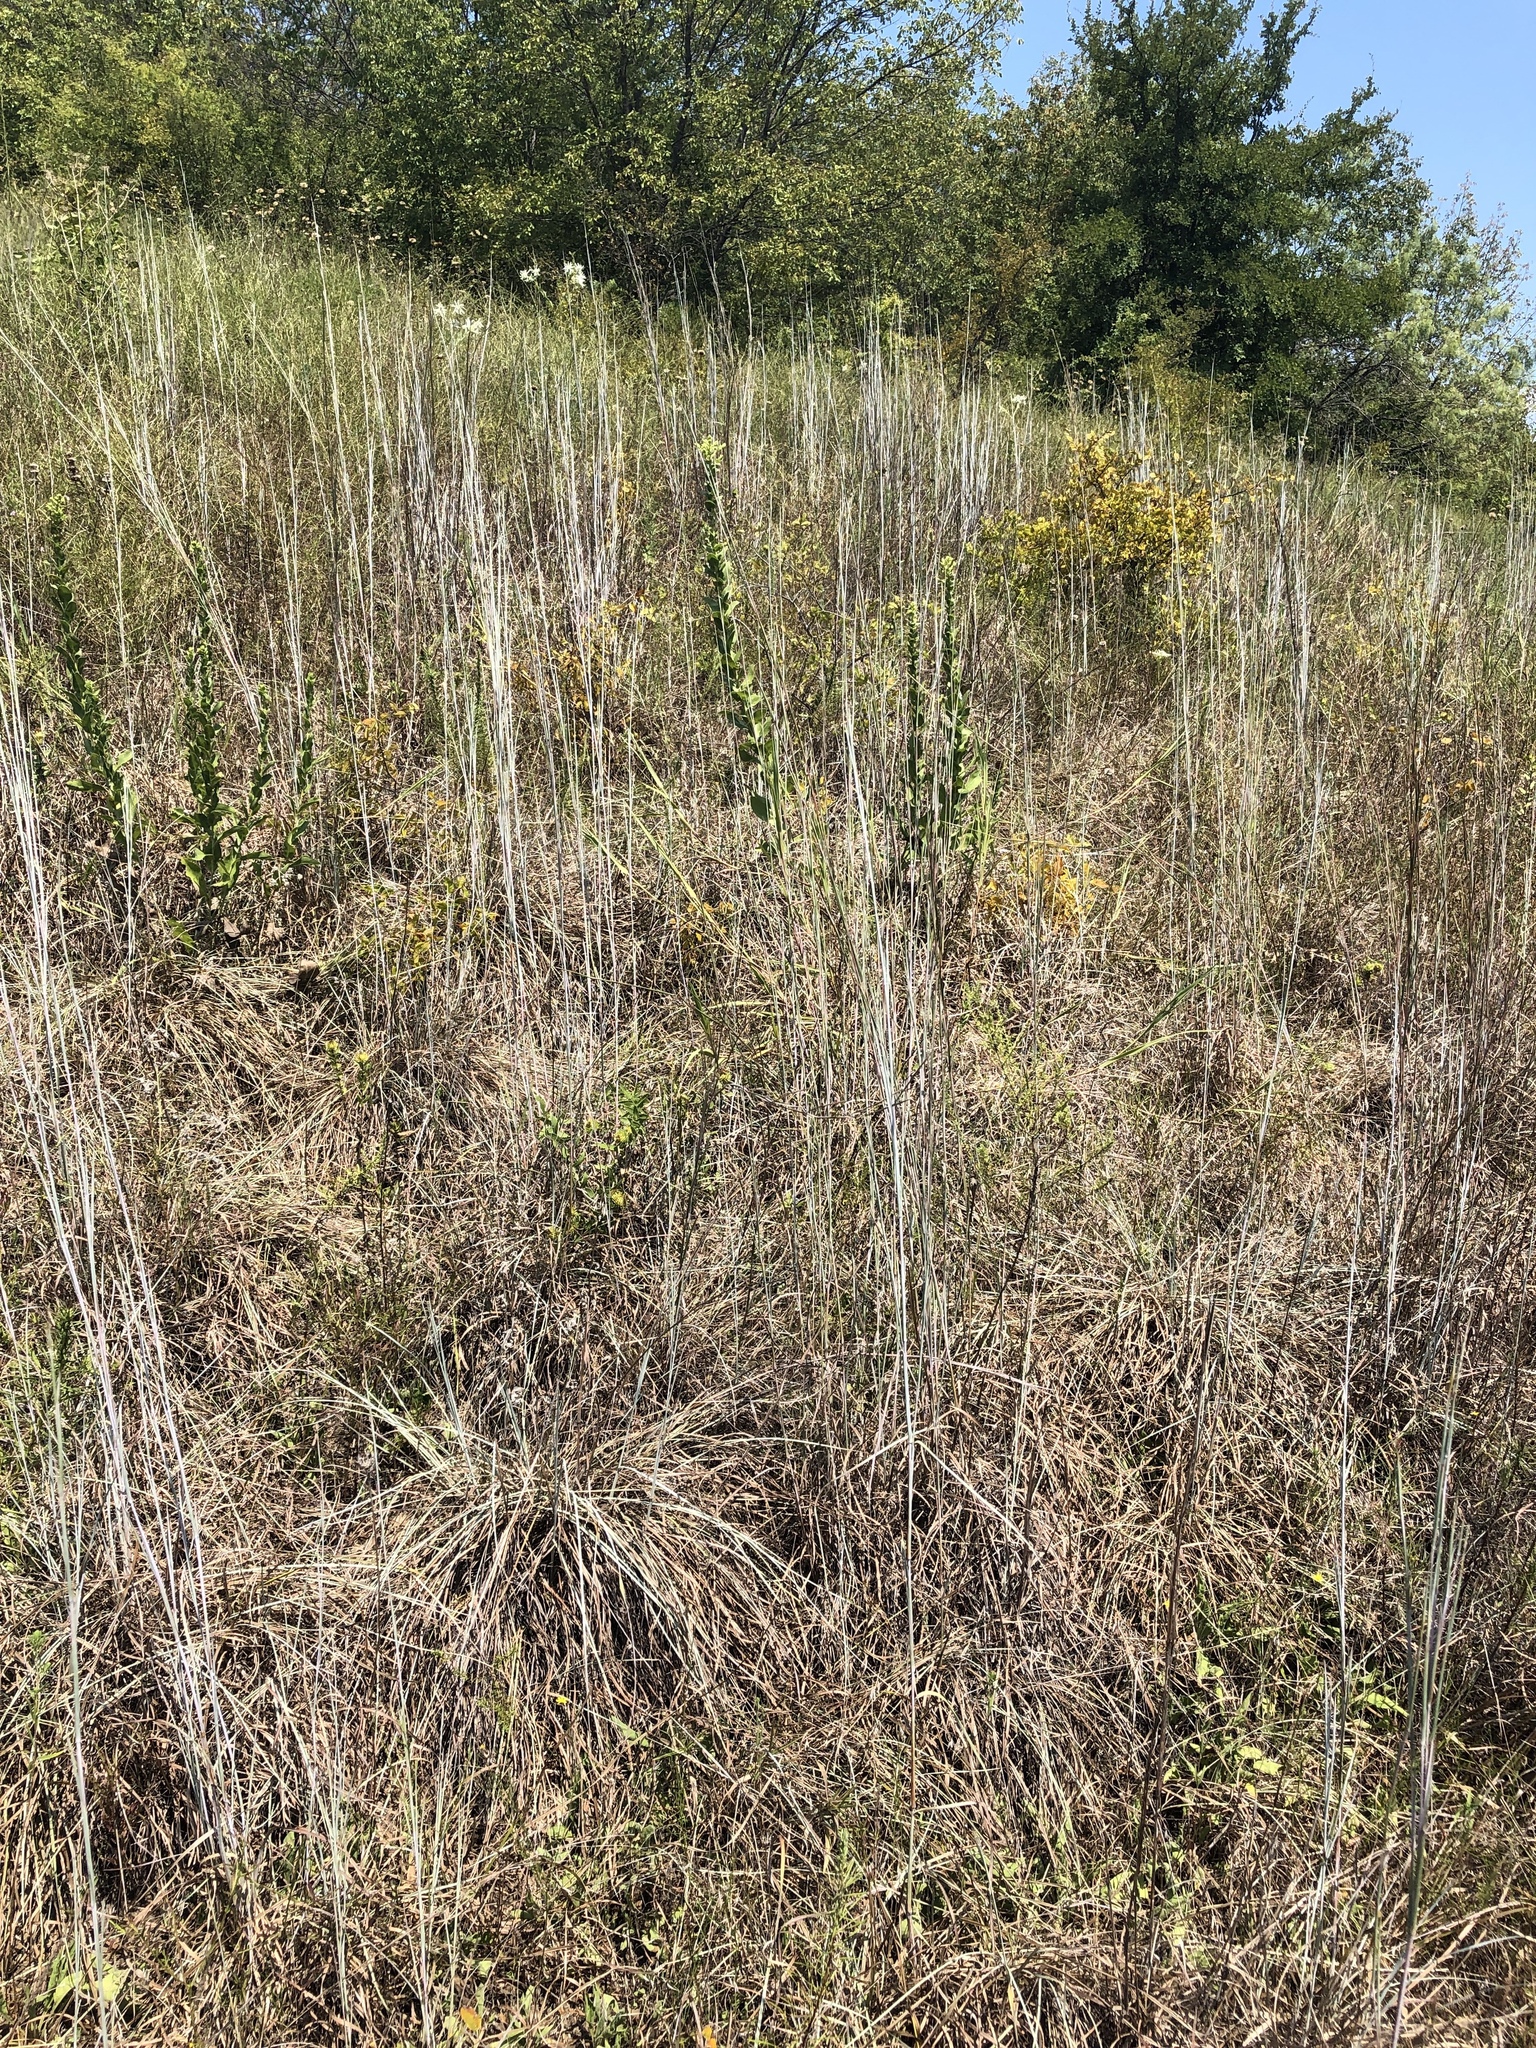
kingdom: Plantae
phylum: Tracheophyta
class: Liliopsida
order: Poales
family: Poaceae
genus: Schizachyrium
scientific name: Schizachyrium scoparium
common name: Little bluestem
